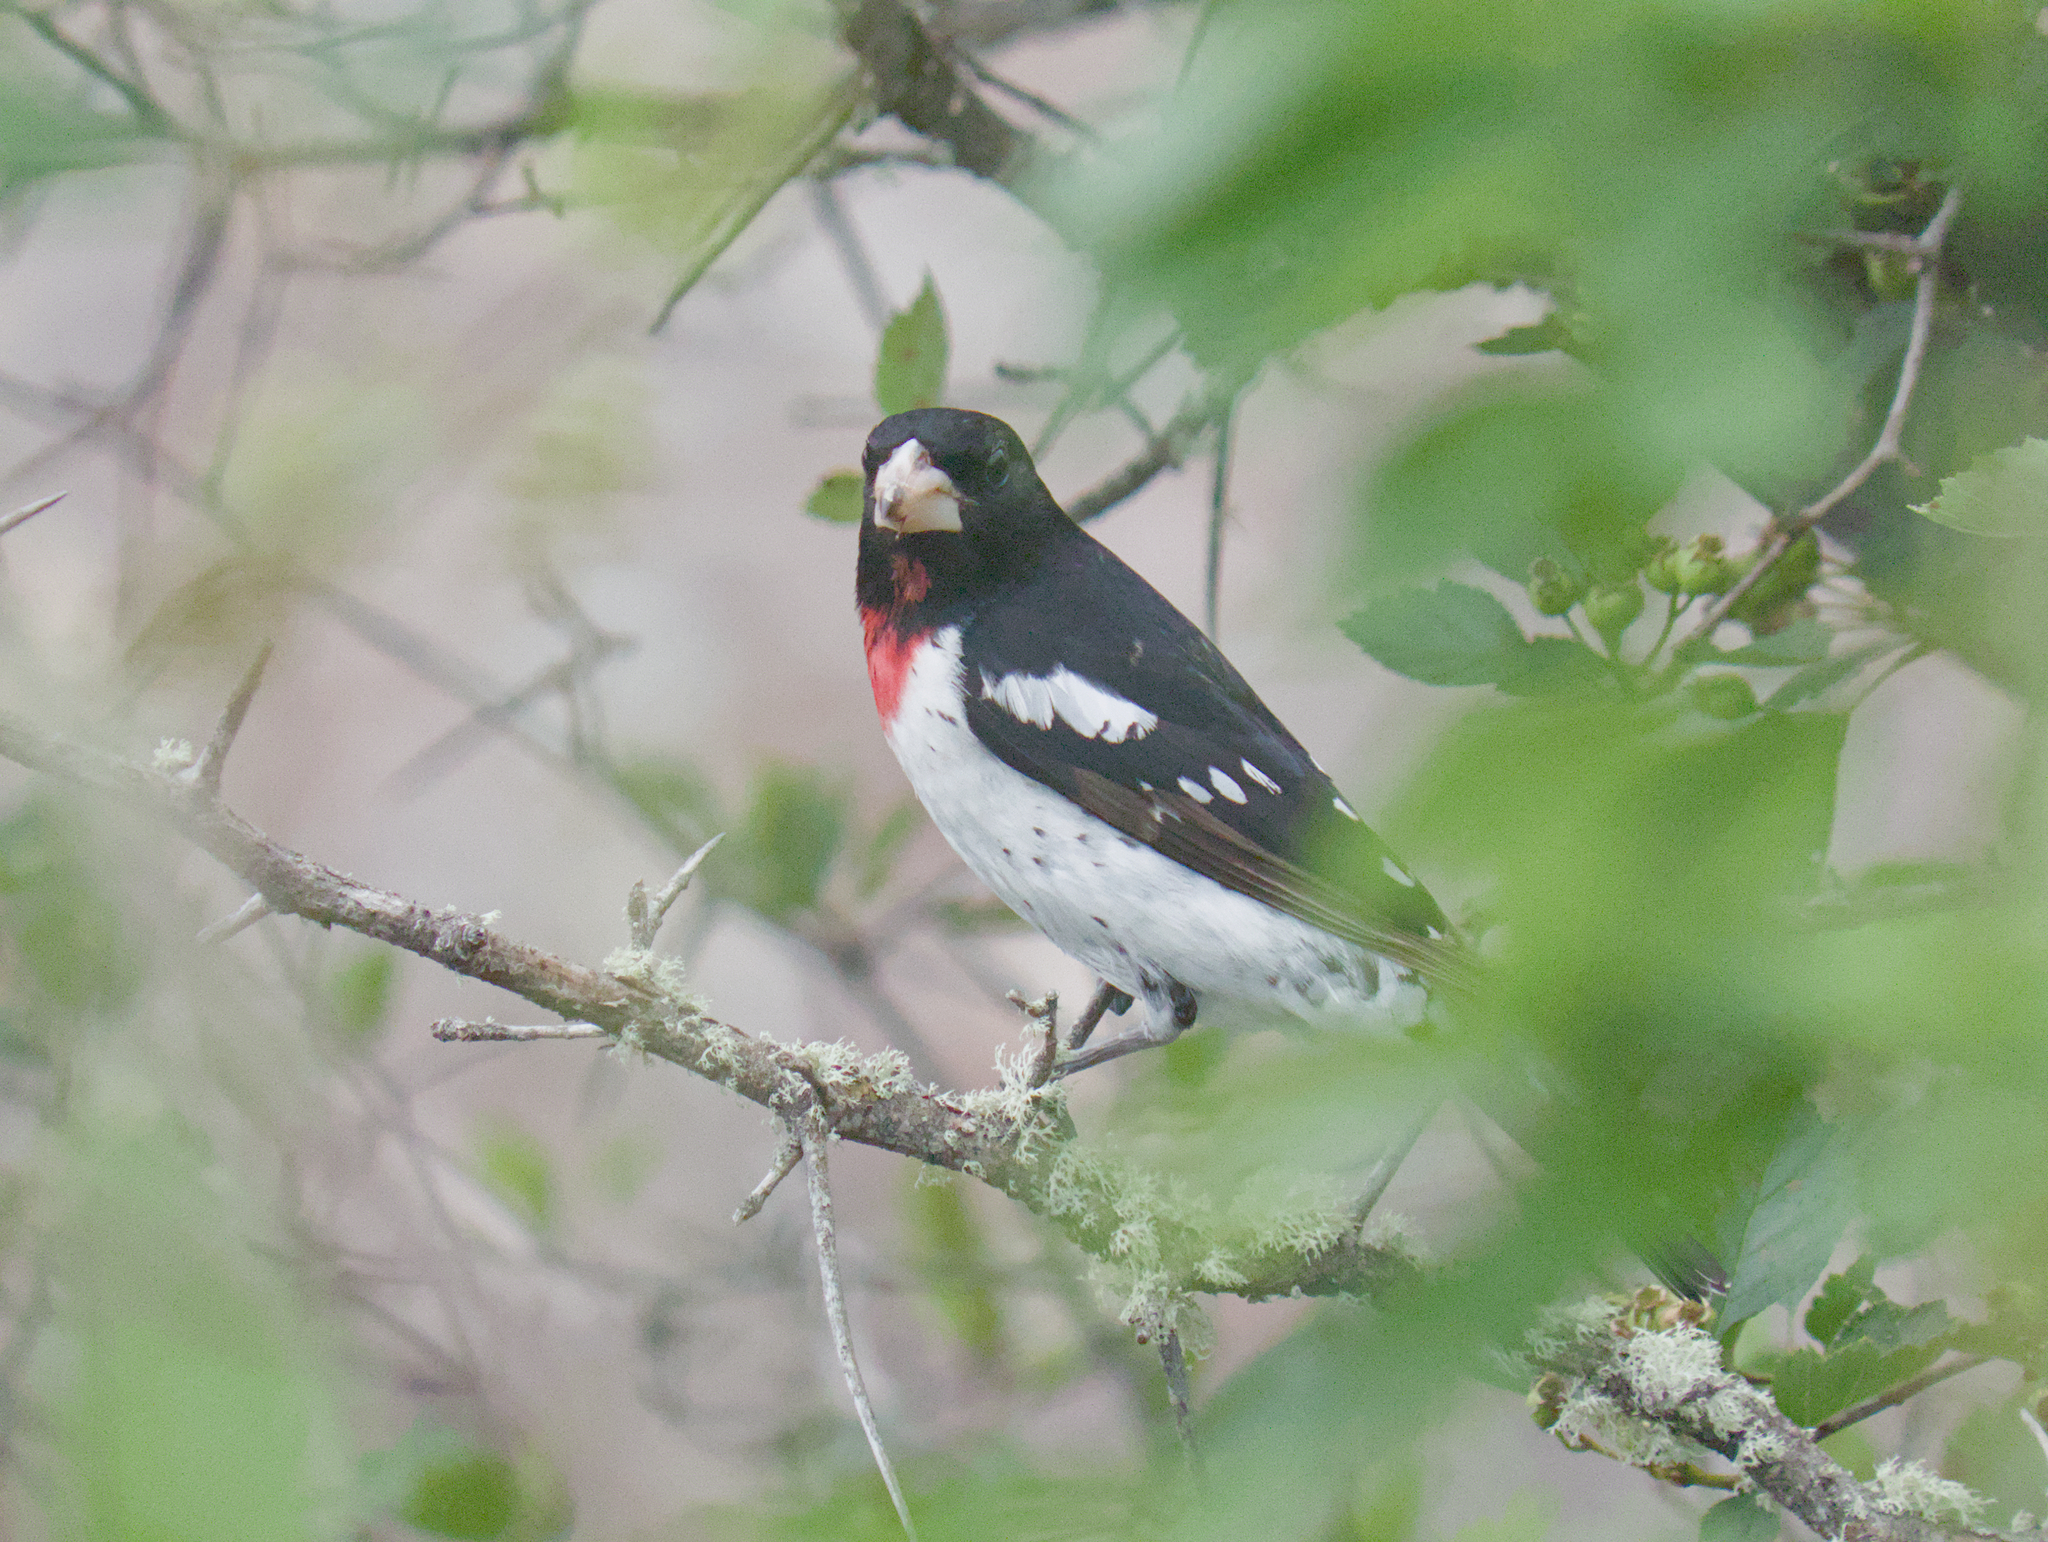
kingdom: Animalia
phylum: Chordata
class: Aves
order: Passeriformes
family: Cardinalidae
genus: Pheucticus
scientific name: Pheucticus ludovicianus
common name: Rose-breasted grosbeak
